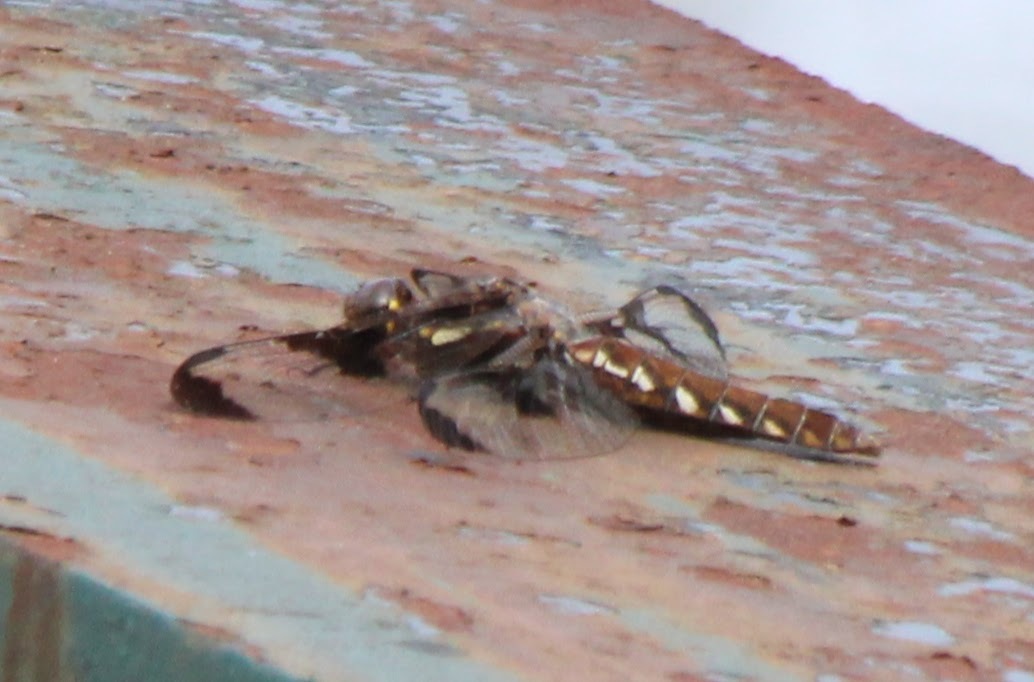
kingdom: Animalia
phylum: Arthropoda
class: Insecta
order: Odonata
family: Libellulidae
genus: Plathemis
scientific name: Plathemis lydia
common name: Common whitetail
